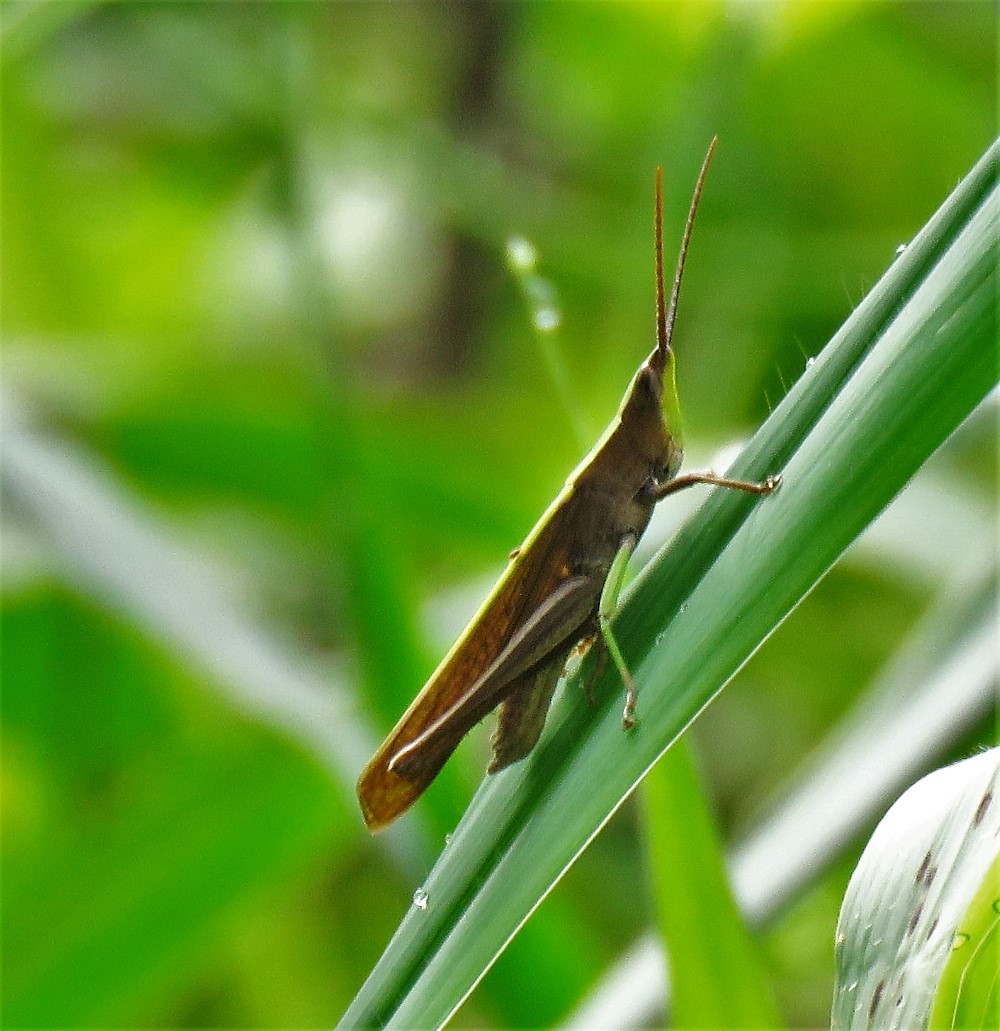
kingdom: Animalia
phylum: Arthropoda
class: Insecta
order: Orthoptera
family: Acrididae
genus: Metaleptea
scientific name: Metaleptea adspersa
